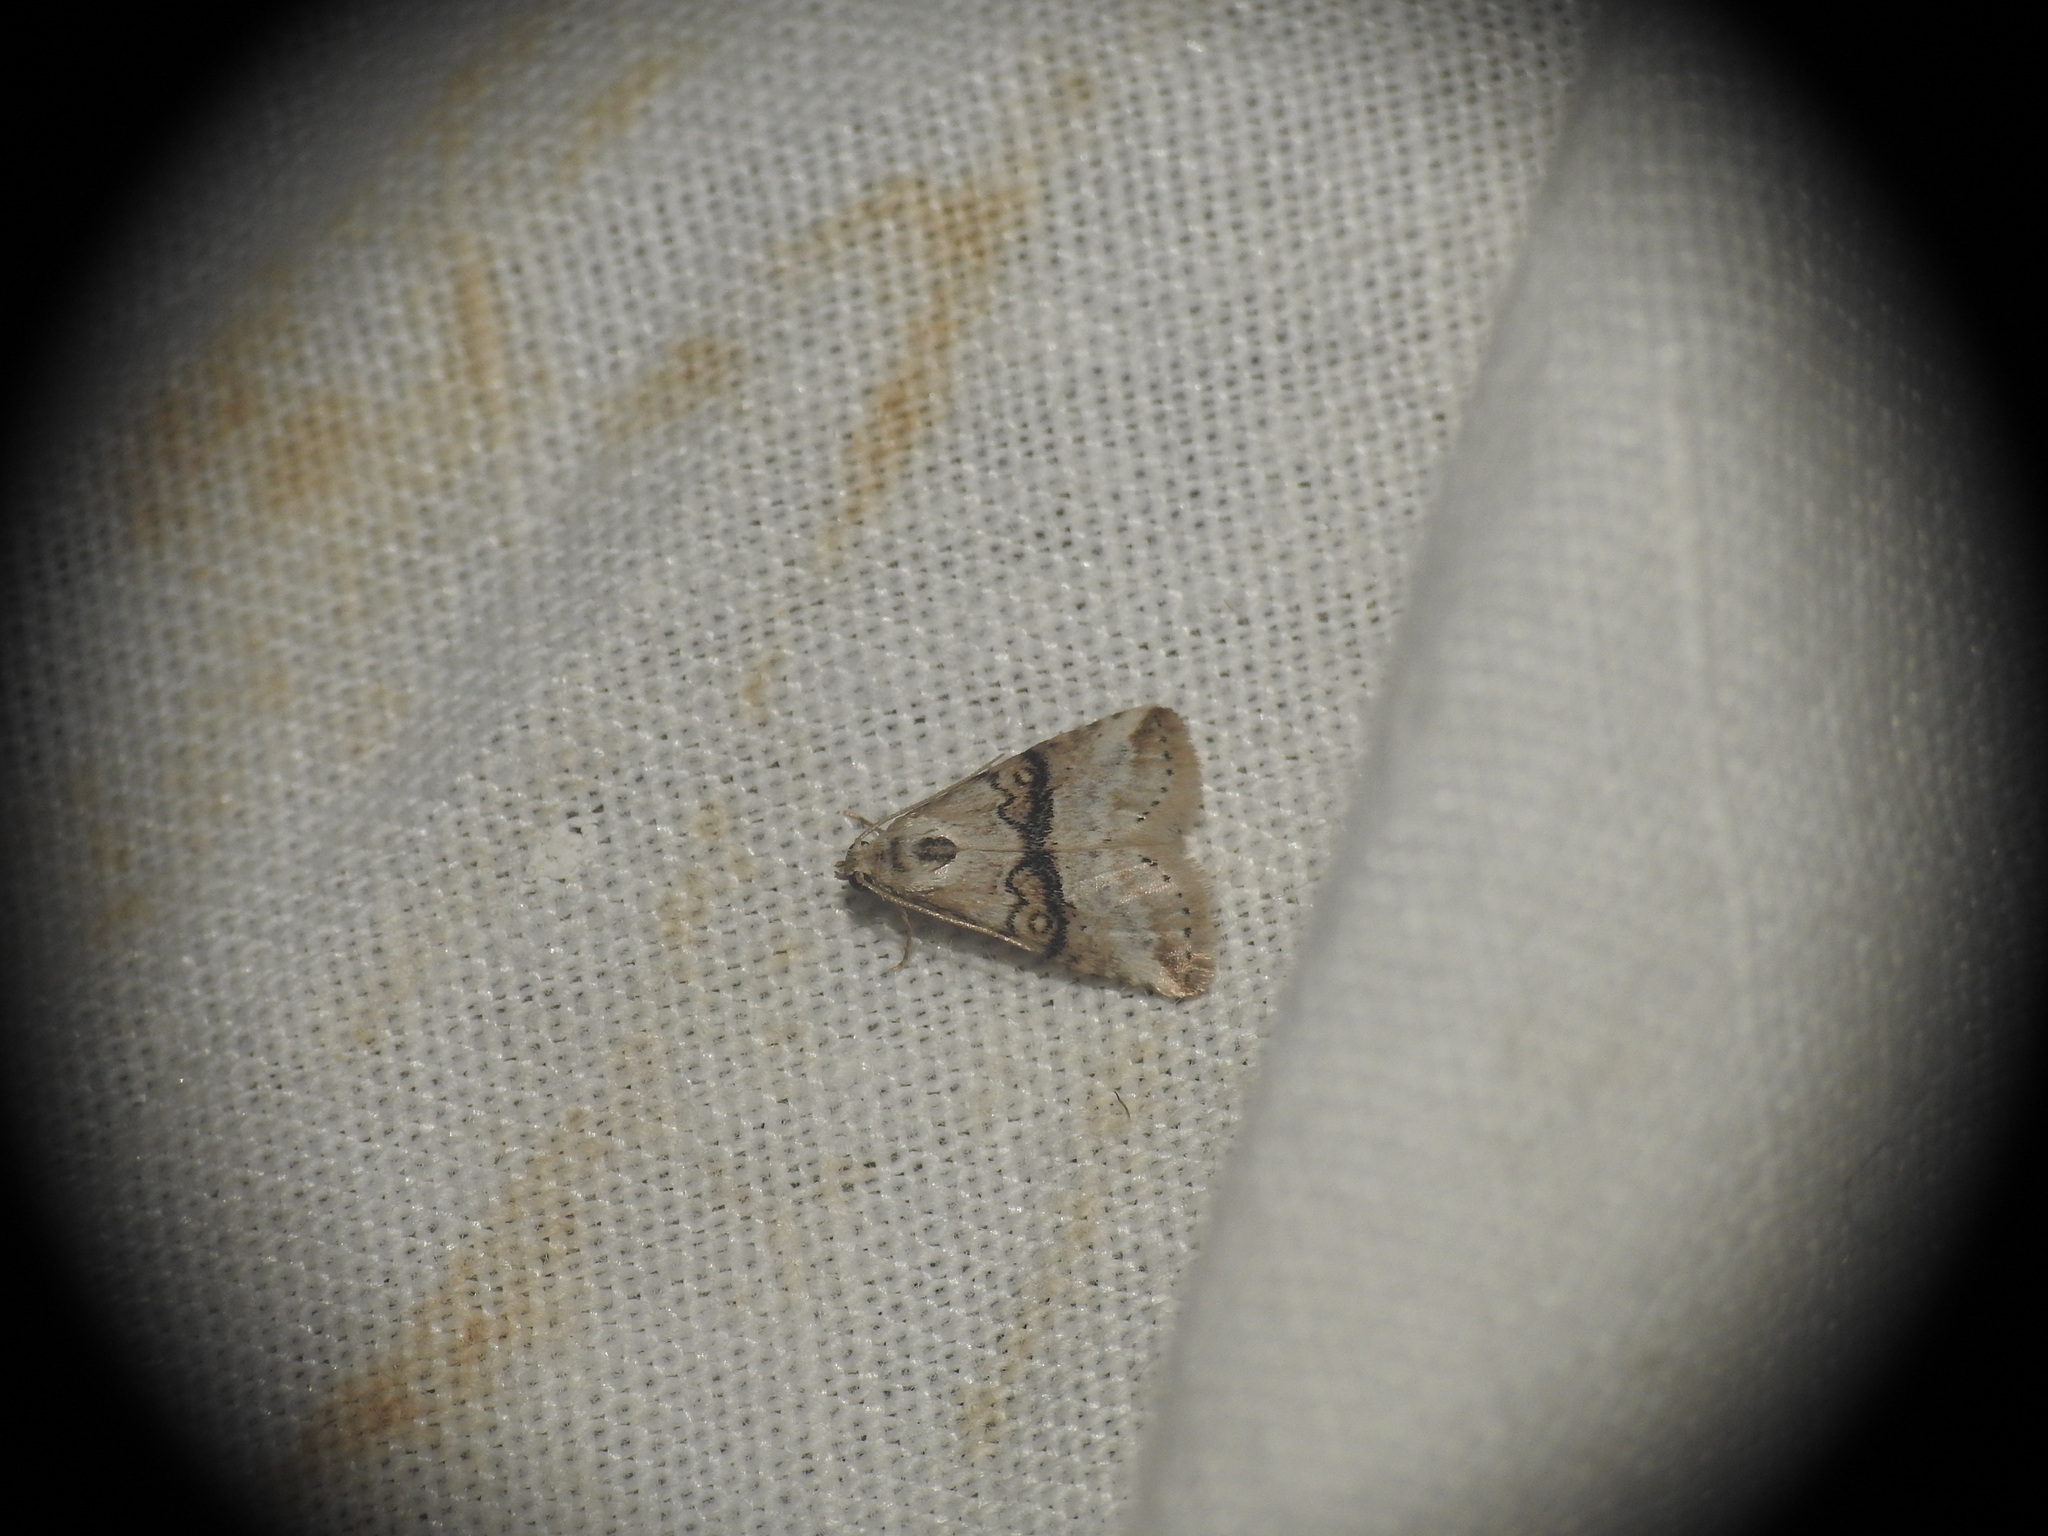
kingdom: Animalia
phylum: Arthropoda
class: Insecta
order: Lepidoptera
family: Erebidae
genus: Zebeeba
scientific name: Zebeeba falsalis
